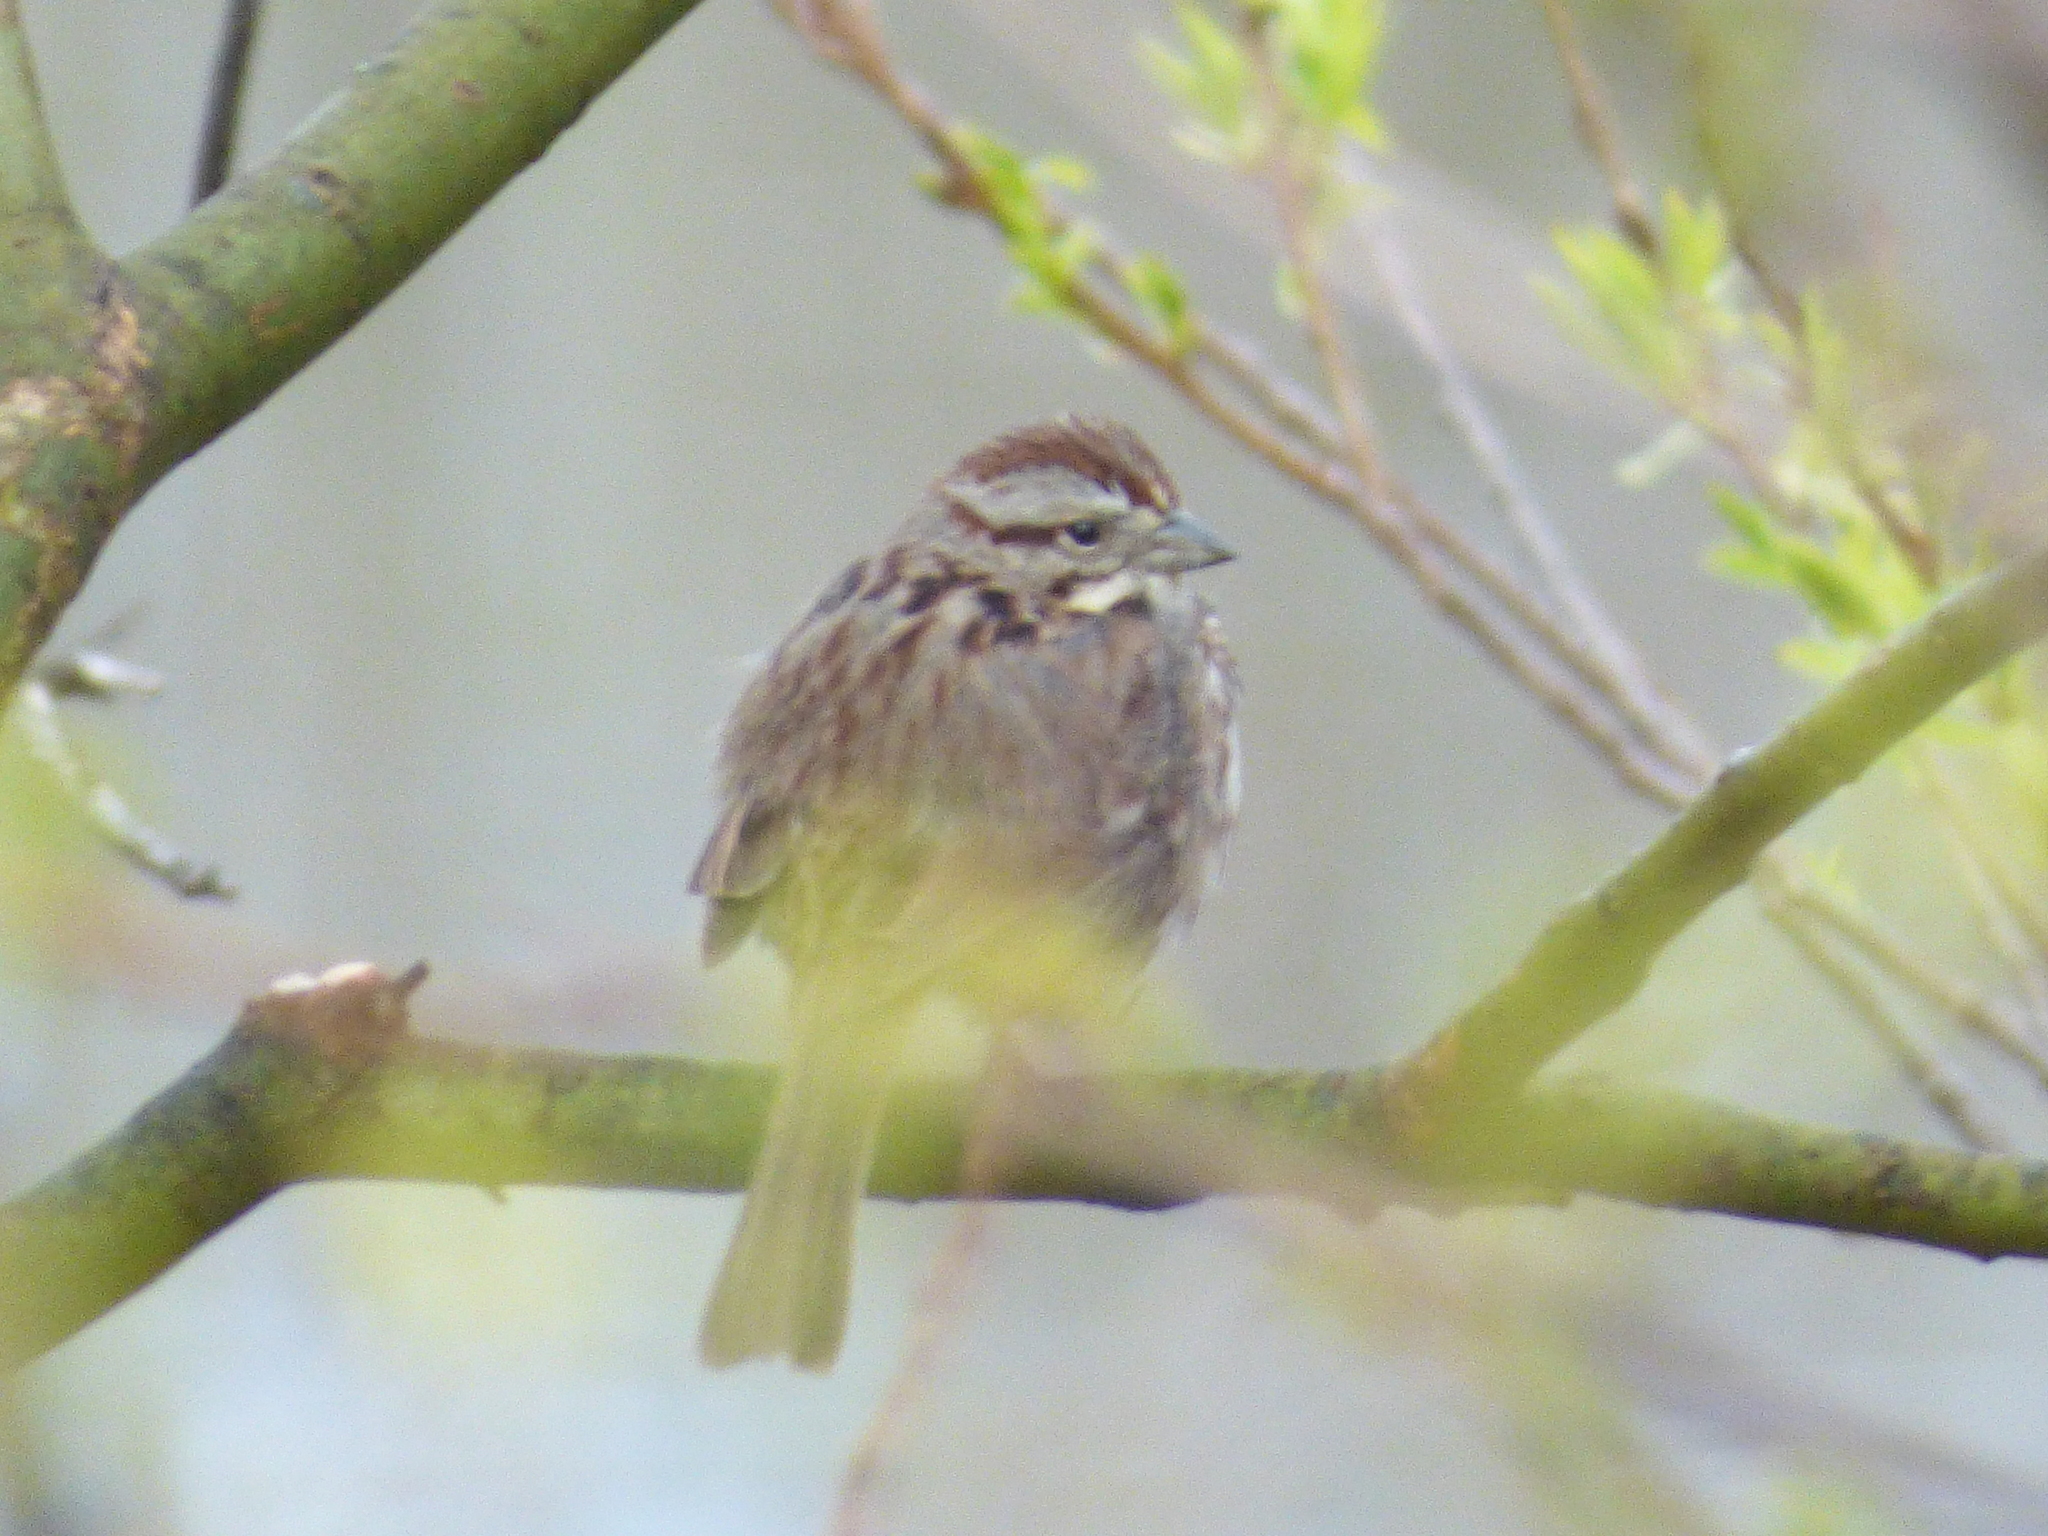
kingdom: Animalia
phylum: Chordata
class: Aves
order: Passeriformes
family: Passerellidae
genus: Melospiza
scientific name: Melospiza melodia
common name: Song sparrow
